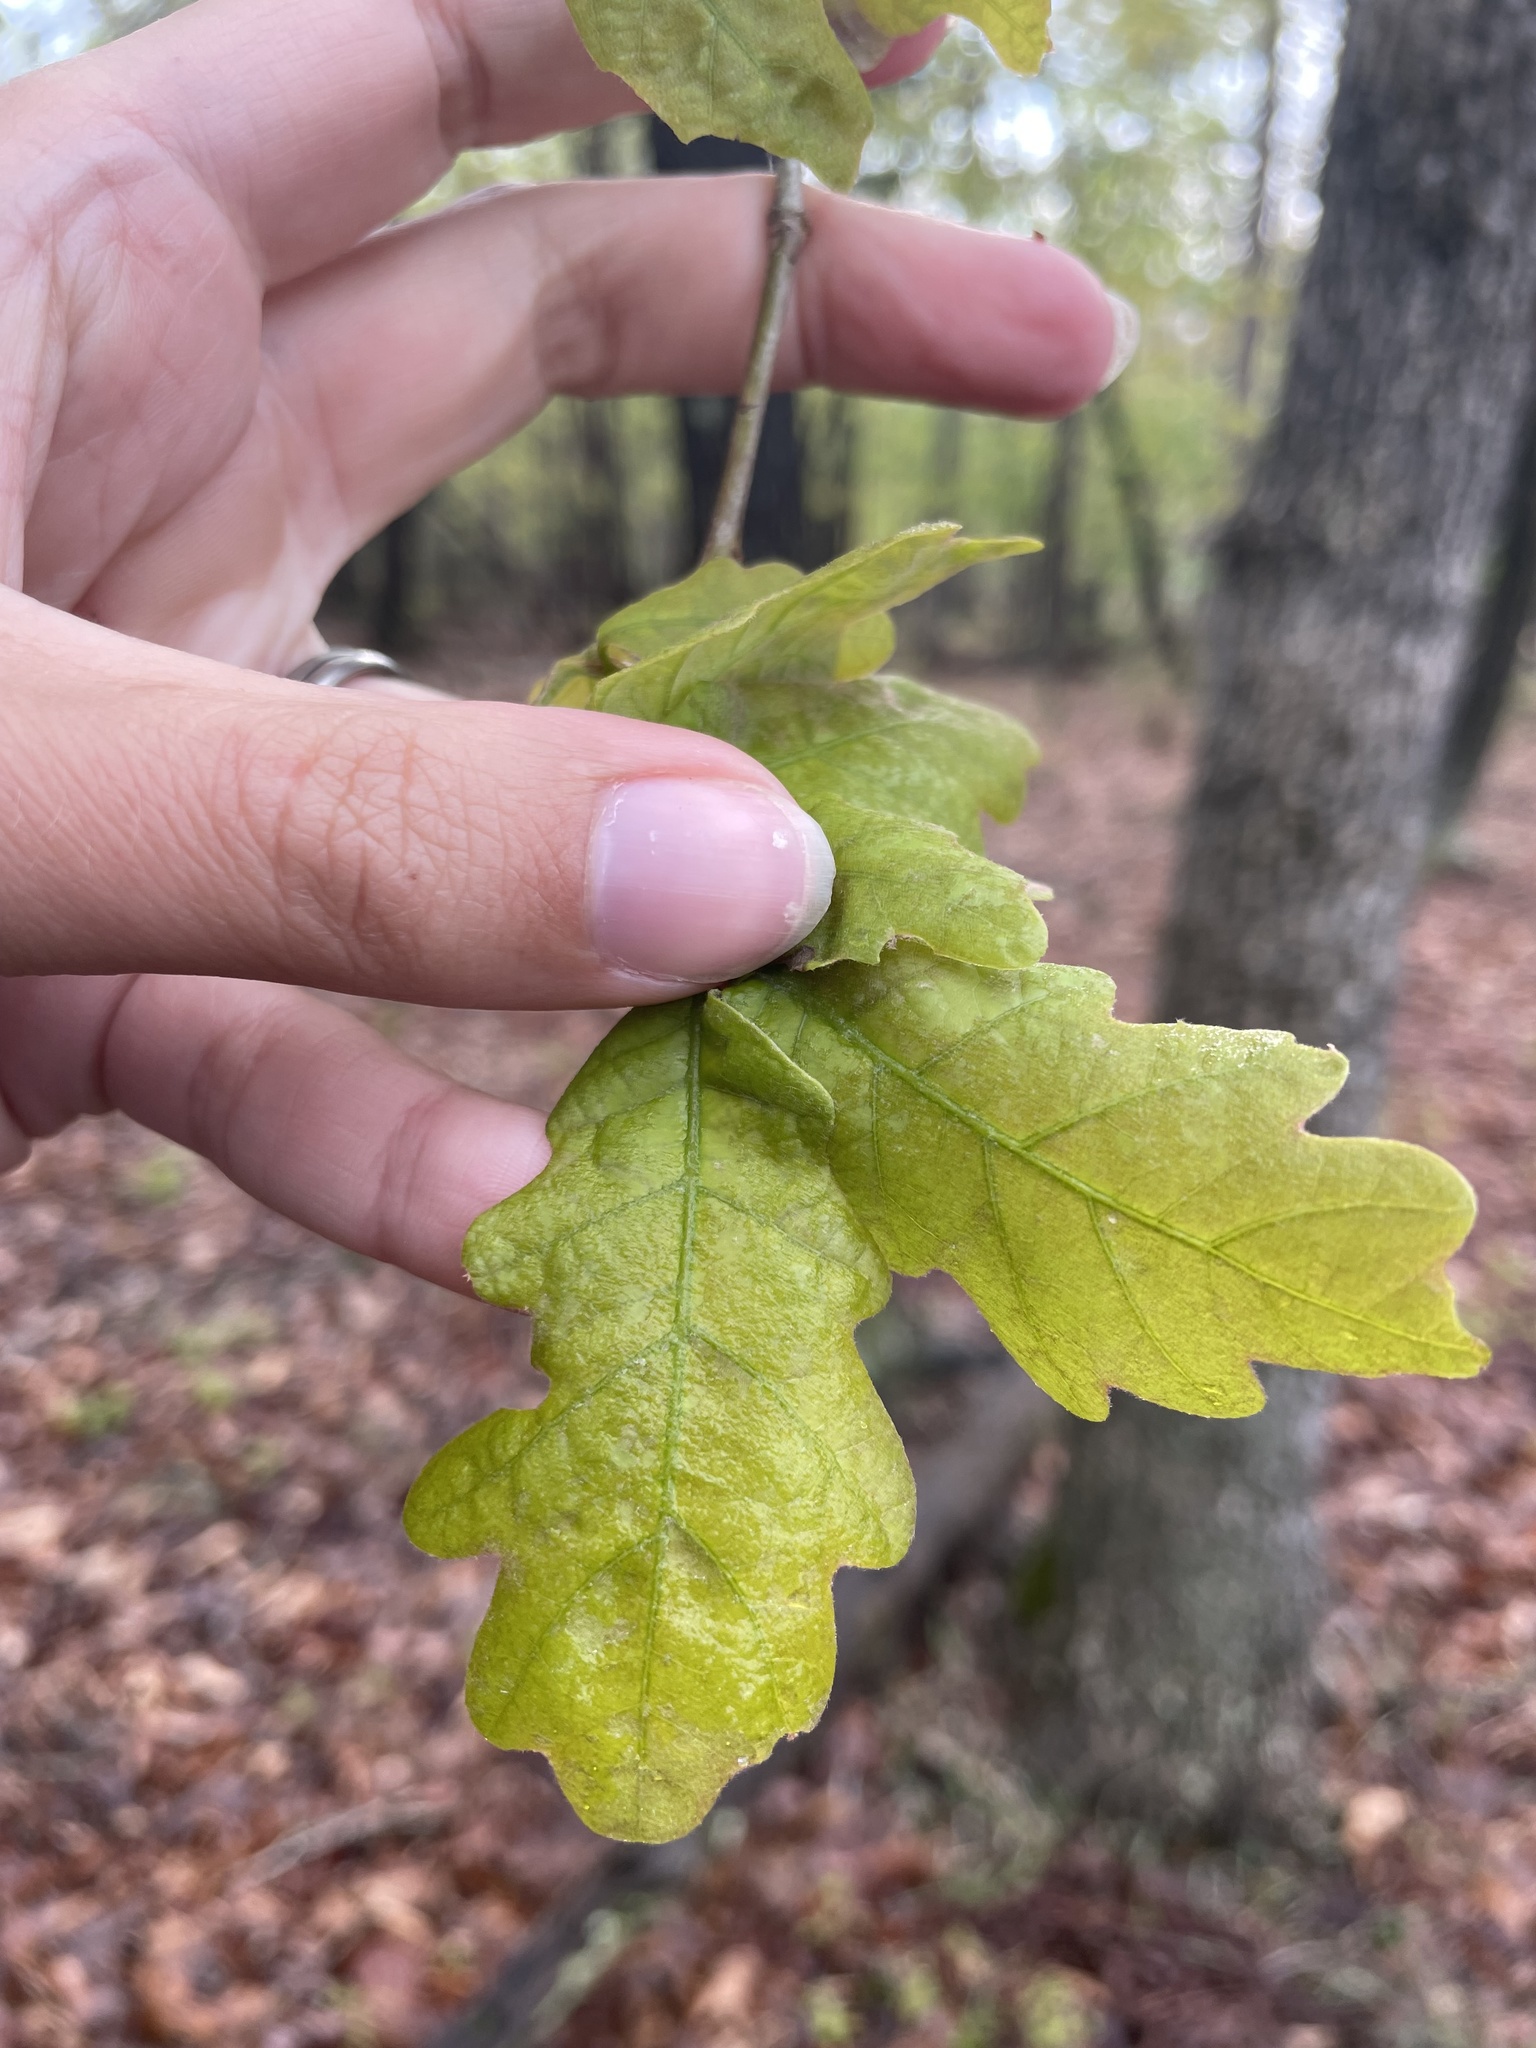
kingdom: Plantae
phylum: Tracheophyta
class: Magnoliopsida
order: Fagales
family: Fagaceae
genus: Quercus
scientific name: Quercus alba
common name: White oak
